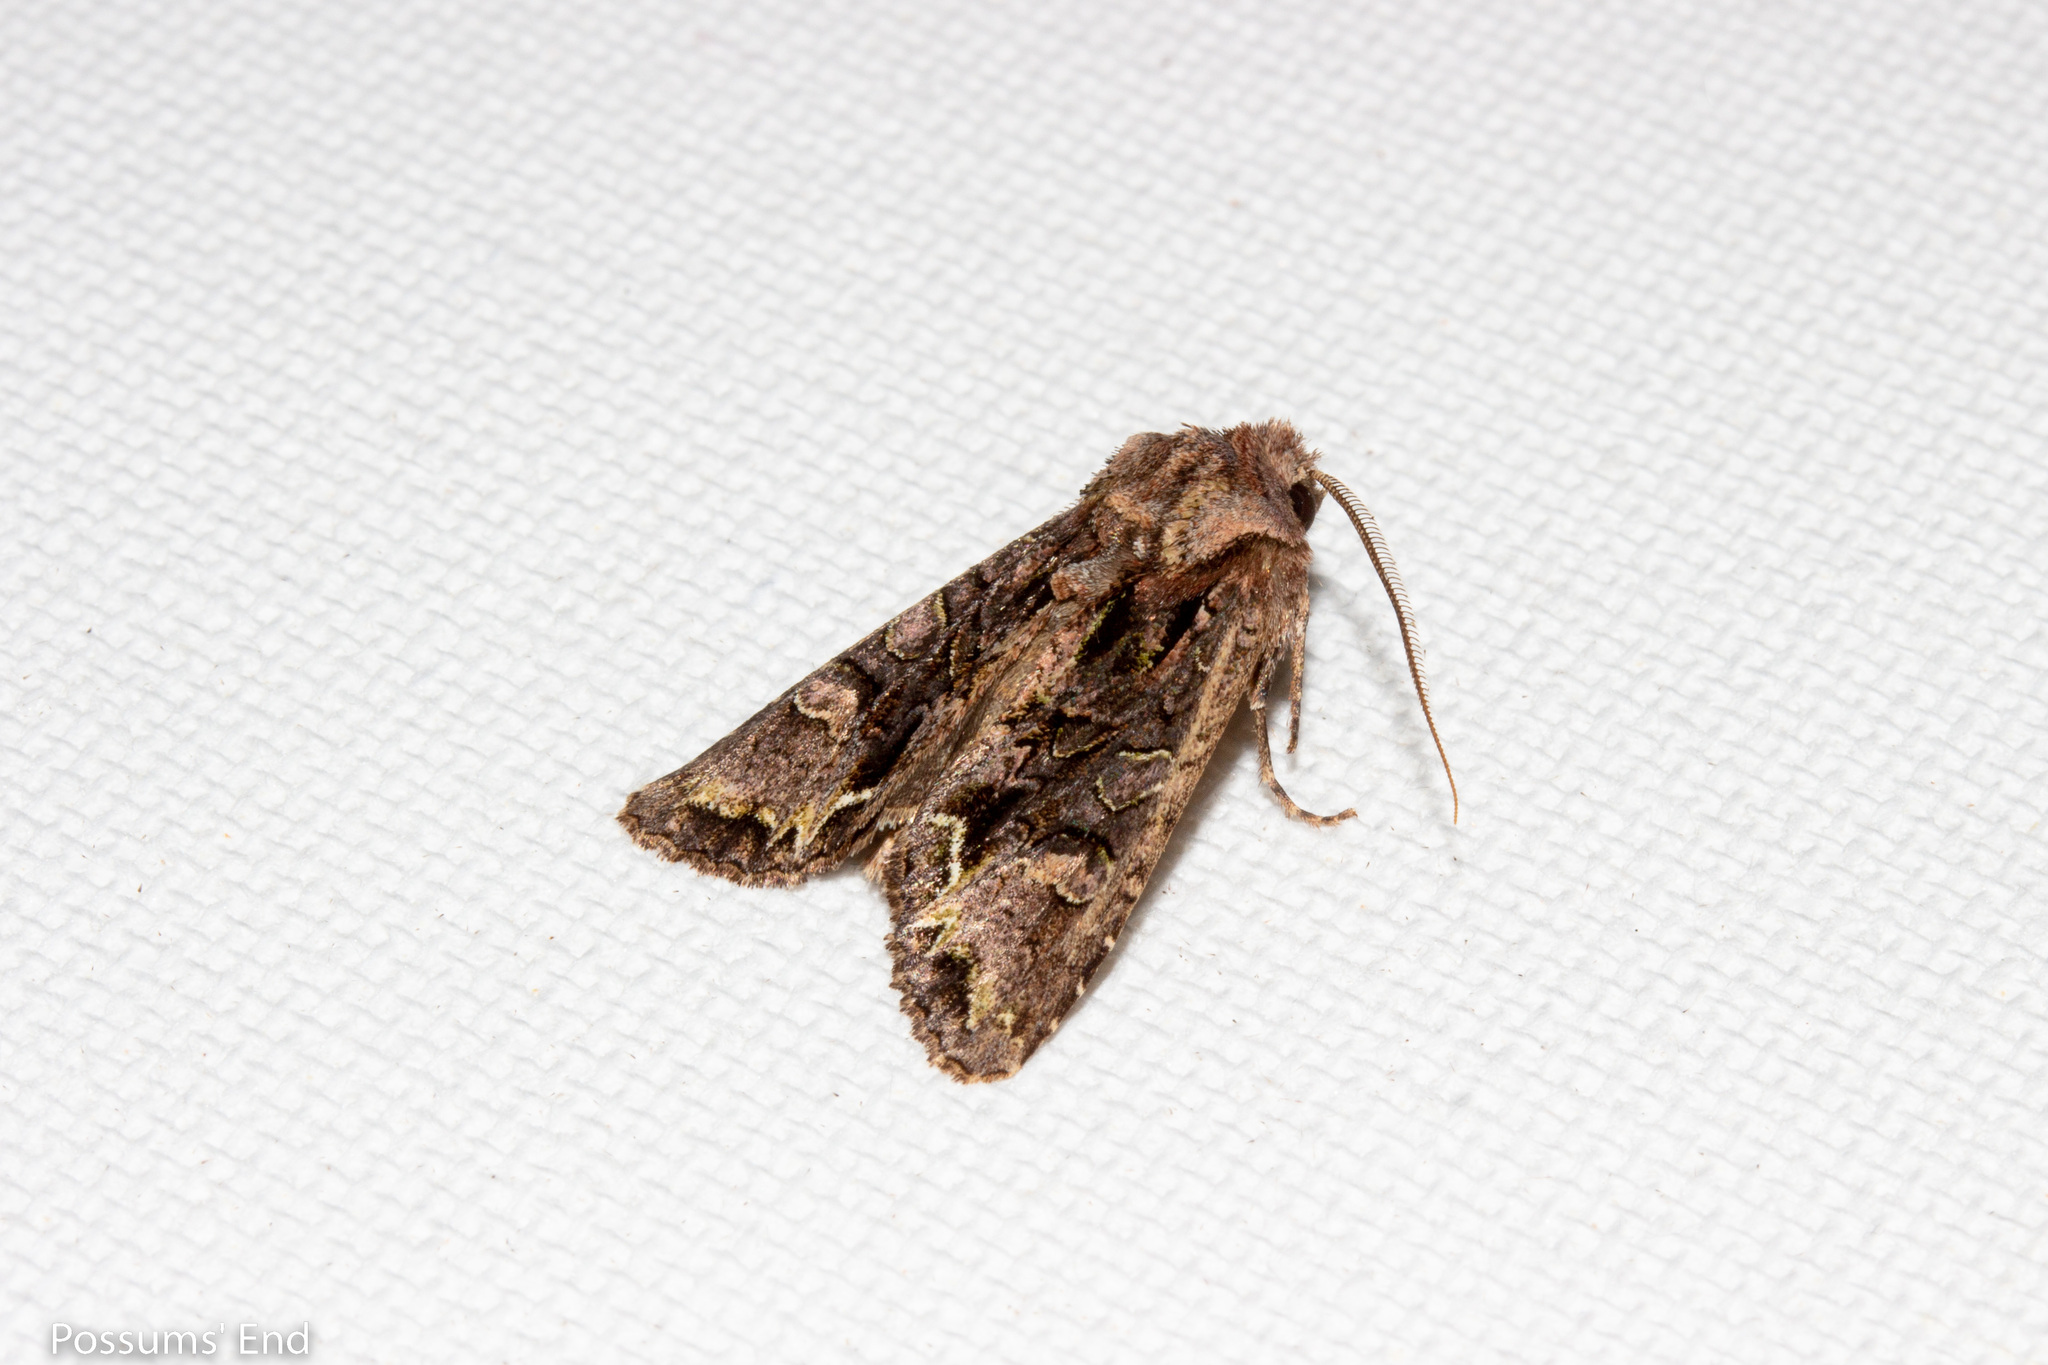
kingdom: Animalia
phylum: Arthropoda
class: Insecta
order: Lepidoptera
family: Noctuidae
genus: Ichneutica
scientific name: Ichneutica insignis
